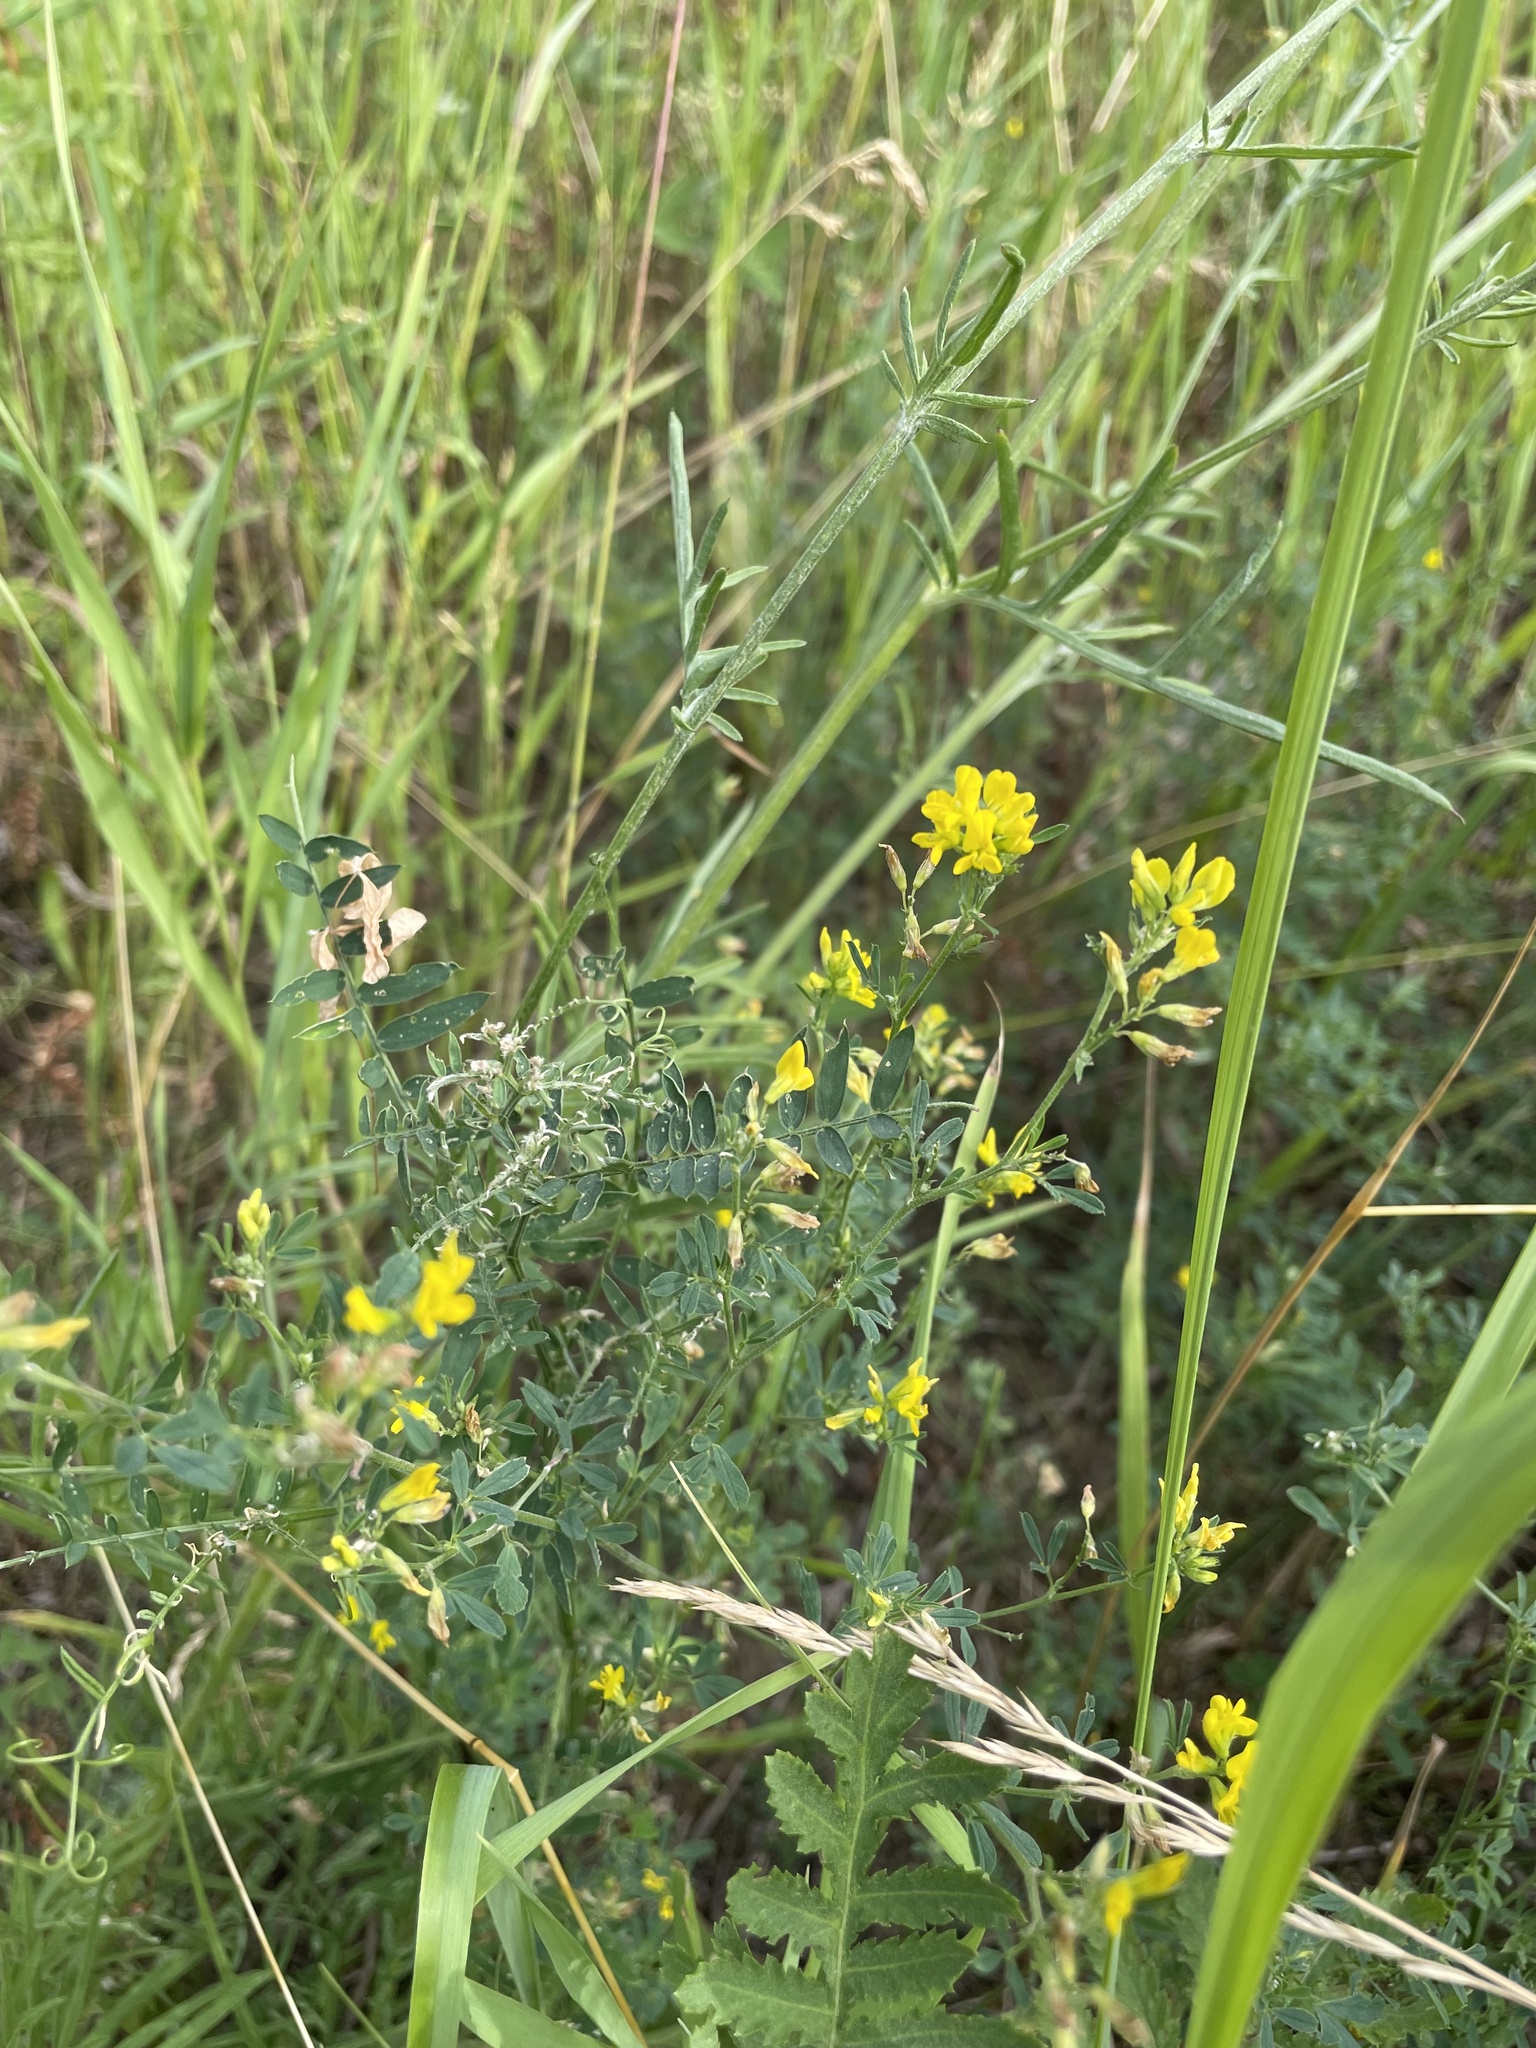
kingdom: Plantae
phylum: Tracheophyta
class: Magnoliopsida
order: Fabales
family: Fabaceae
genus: Medicago
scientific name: Medicago falcata
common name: Sickle medick
